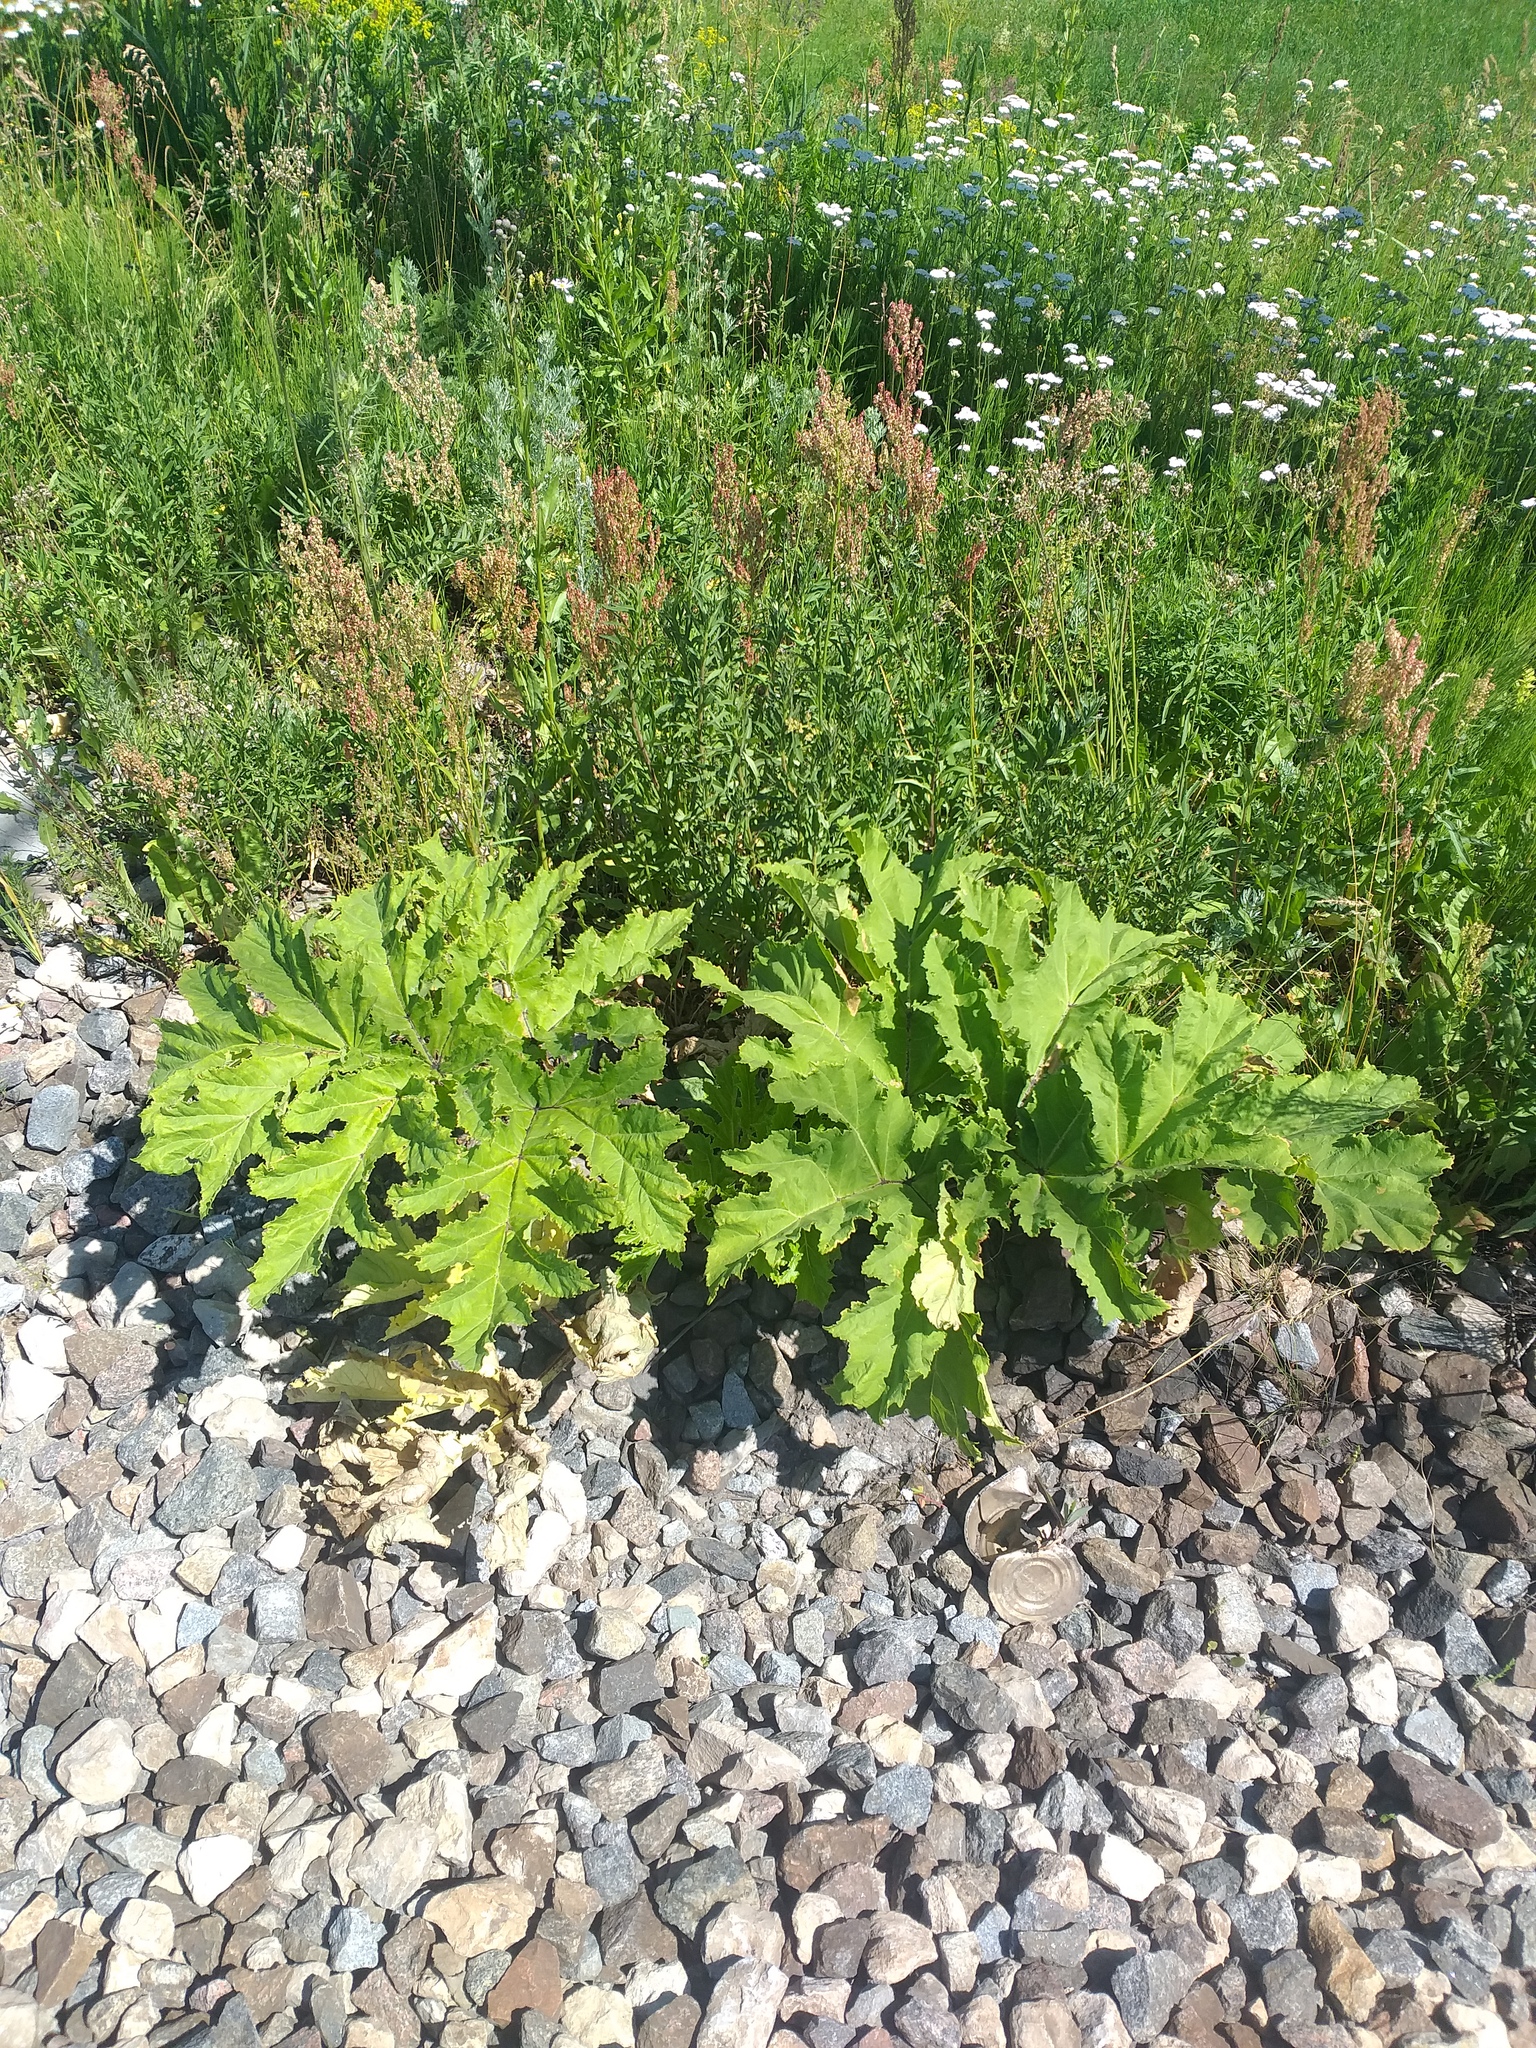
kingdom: Plantae
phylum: Tracheophyta
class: Magnoliopsida
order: Apiales
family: Apiaceae
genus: Heracleum
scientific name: Heracleum sosnowskyi
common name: Sosnowsky's hogweed
